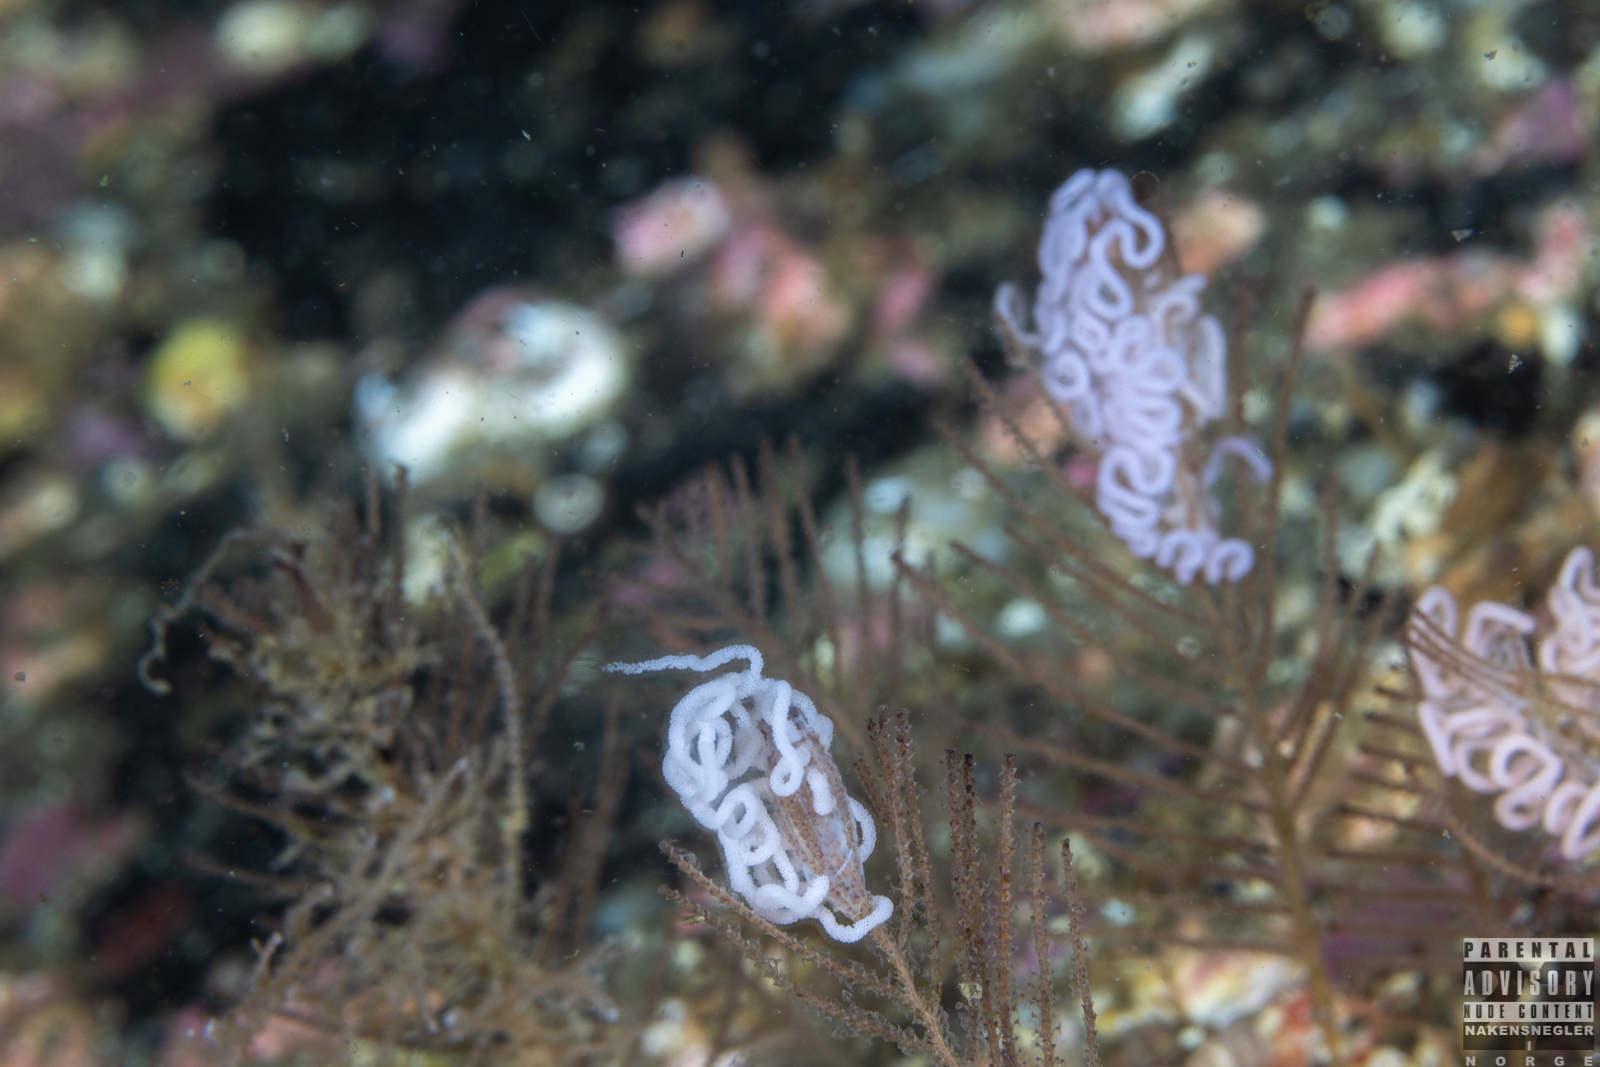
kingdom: Animalia
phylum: Mollusca
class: Gastropoda
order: Nudibranchia
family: Dendronotidae
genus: Dendronotus
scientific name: Dendronotus yrjargul
